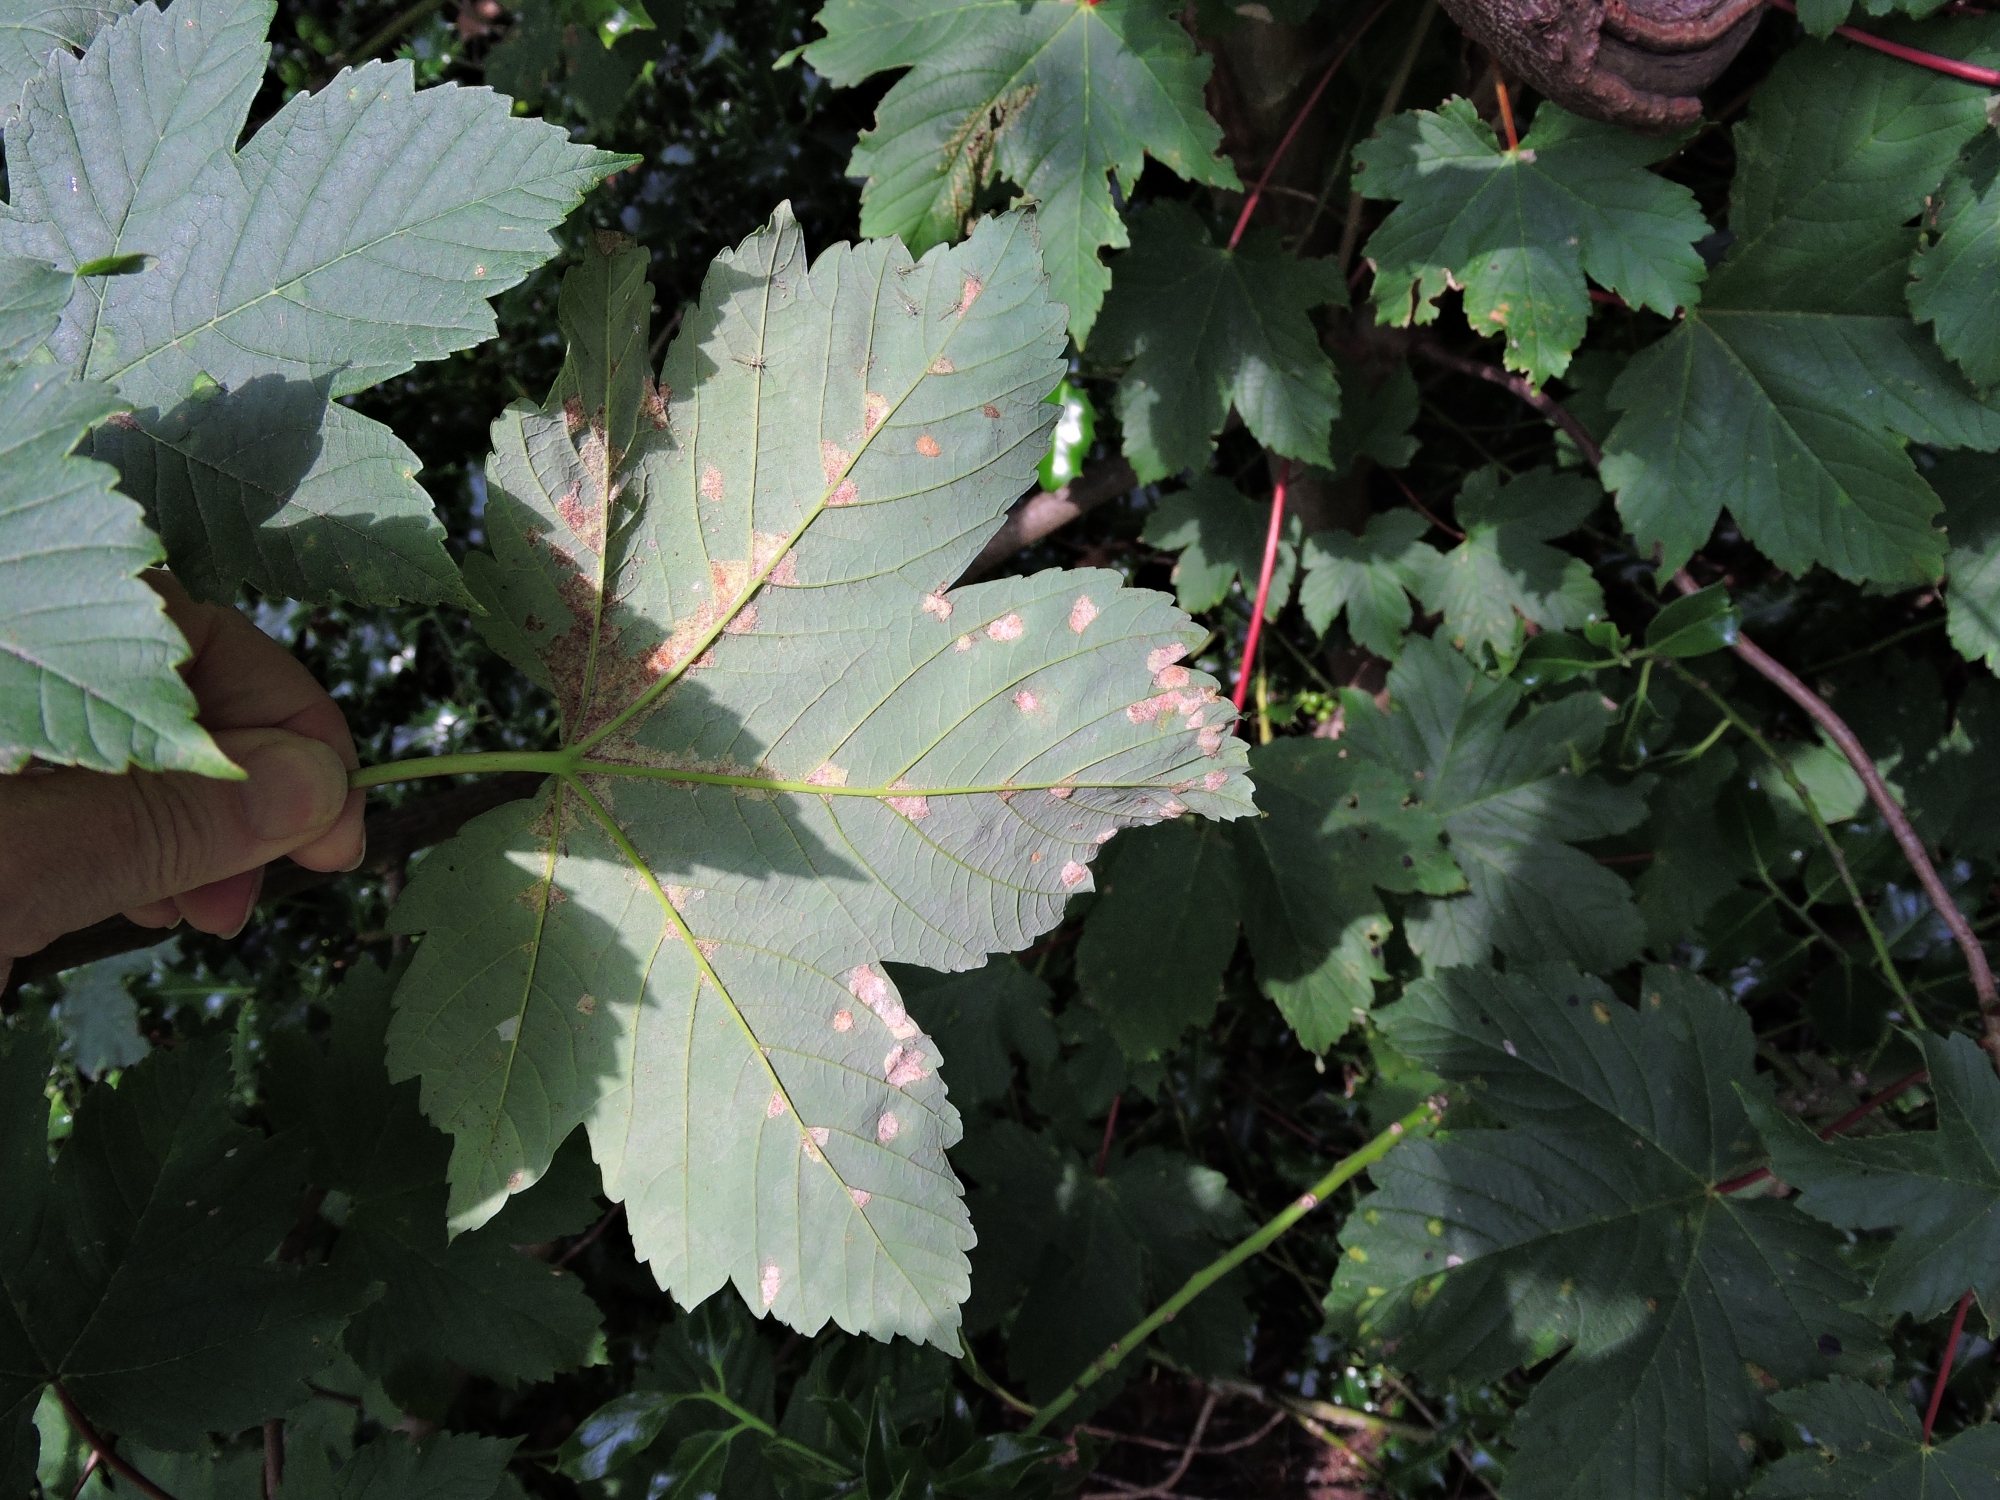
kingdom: Plantae
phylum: Tracheophyta
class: Magnoliopsida
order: Sapindales
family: Sapindaceae
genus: Acer
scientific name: Acer pseudoplatanus
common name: Sycamore
